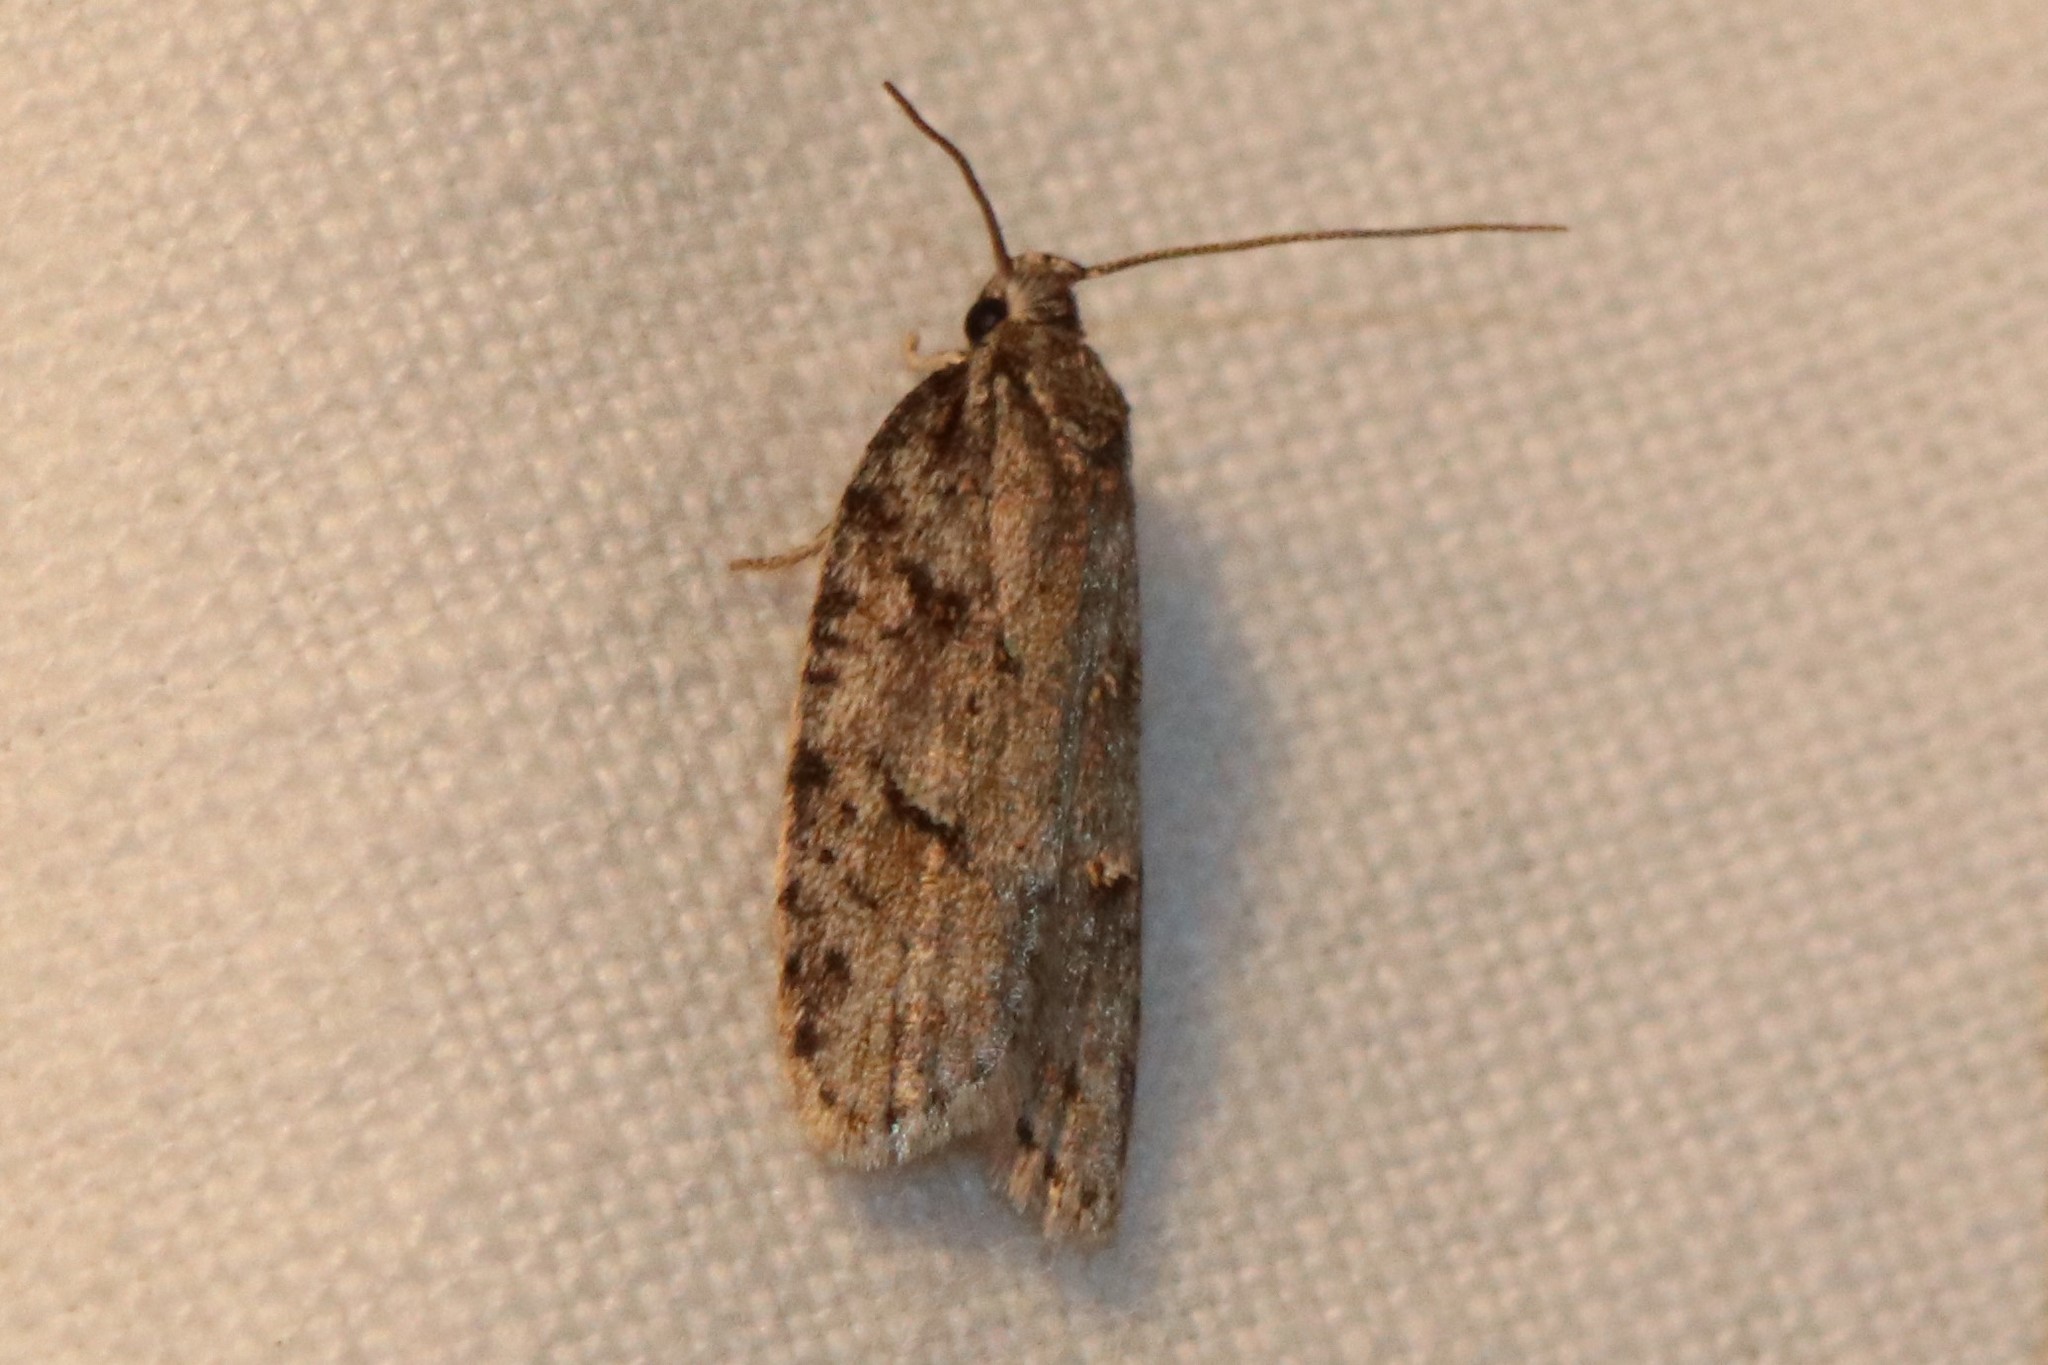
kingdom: Animalia
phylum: Arthropoda
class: Insecta
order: Lepidoptera
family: Depressariidae
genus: Bibarrambla
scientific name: Bibarrambla allenella
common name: Bog bibarrambla moth
